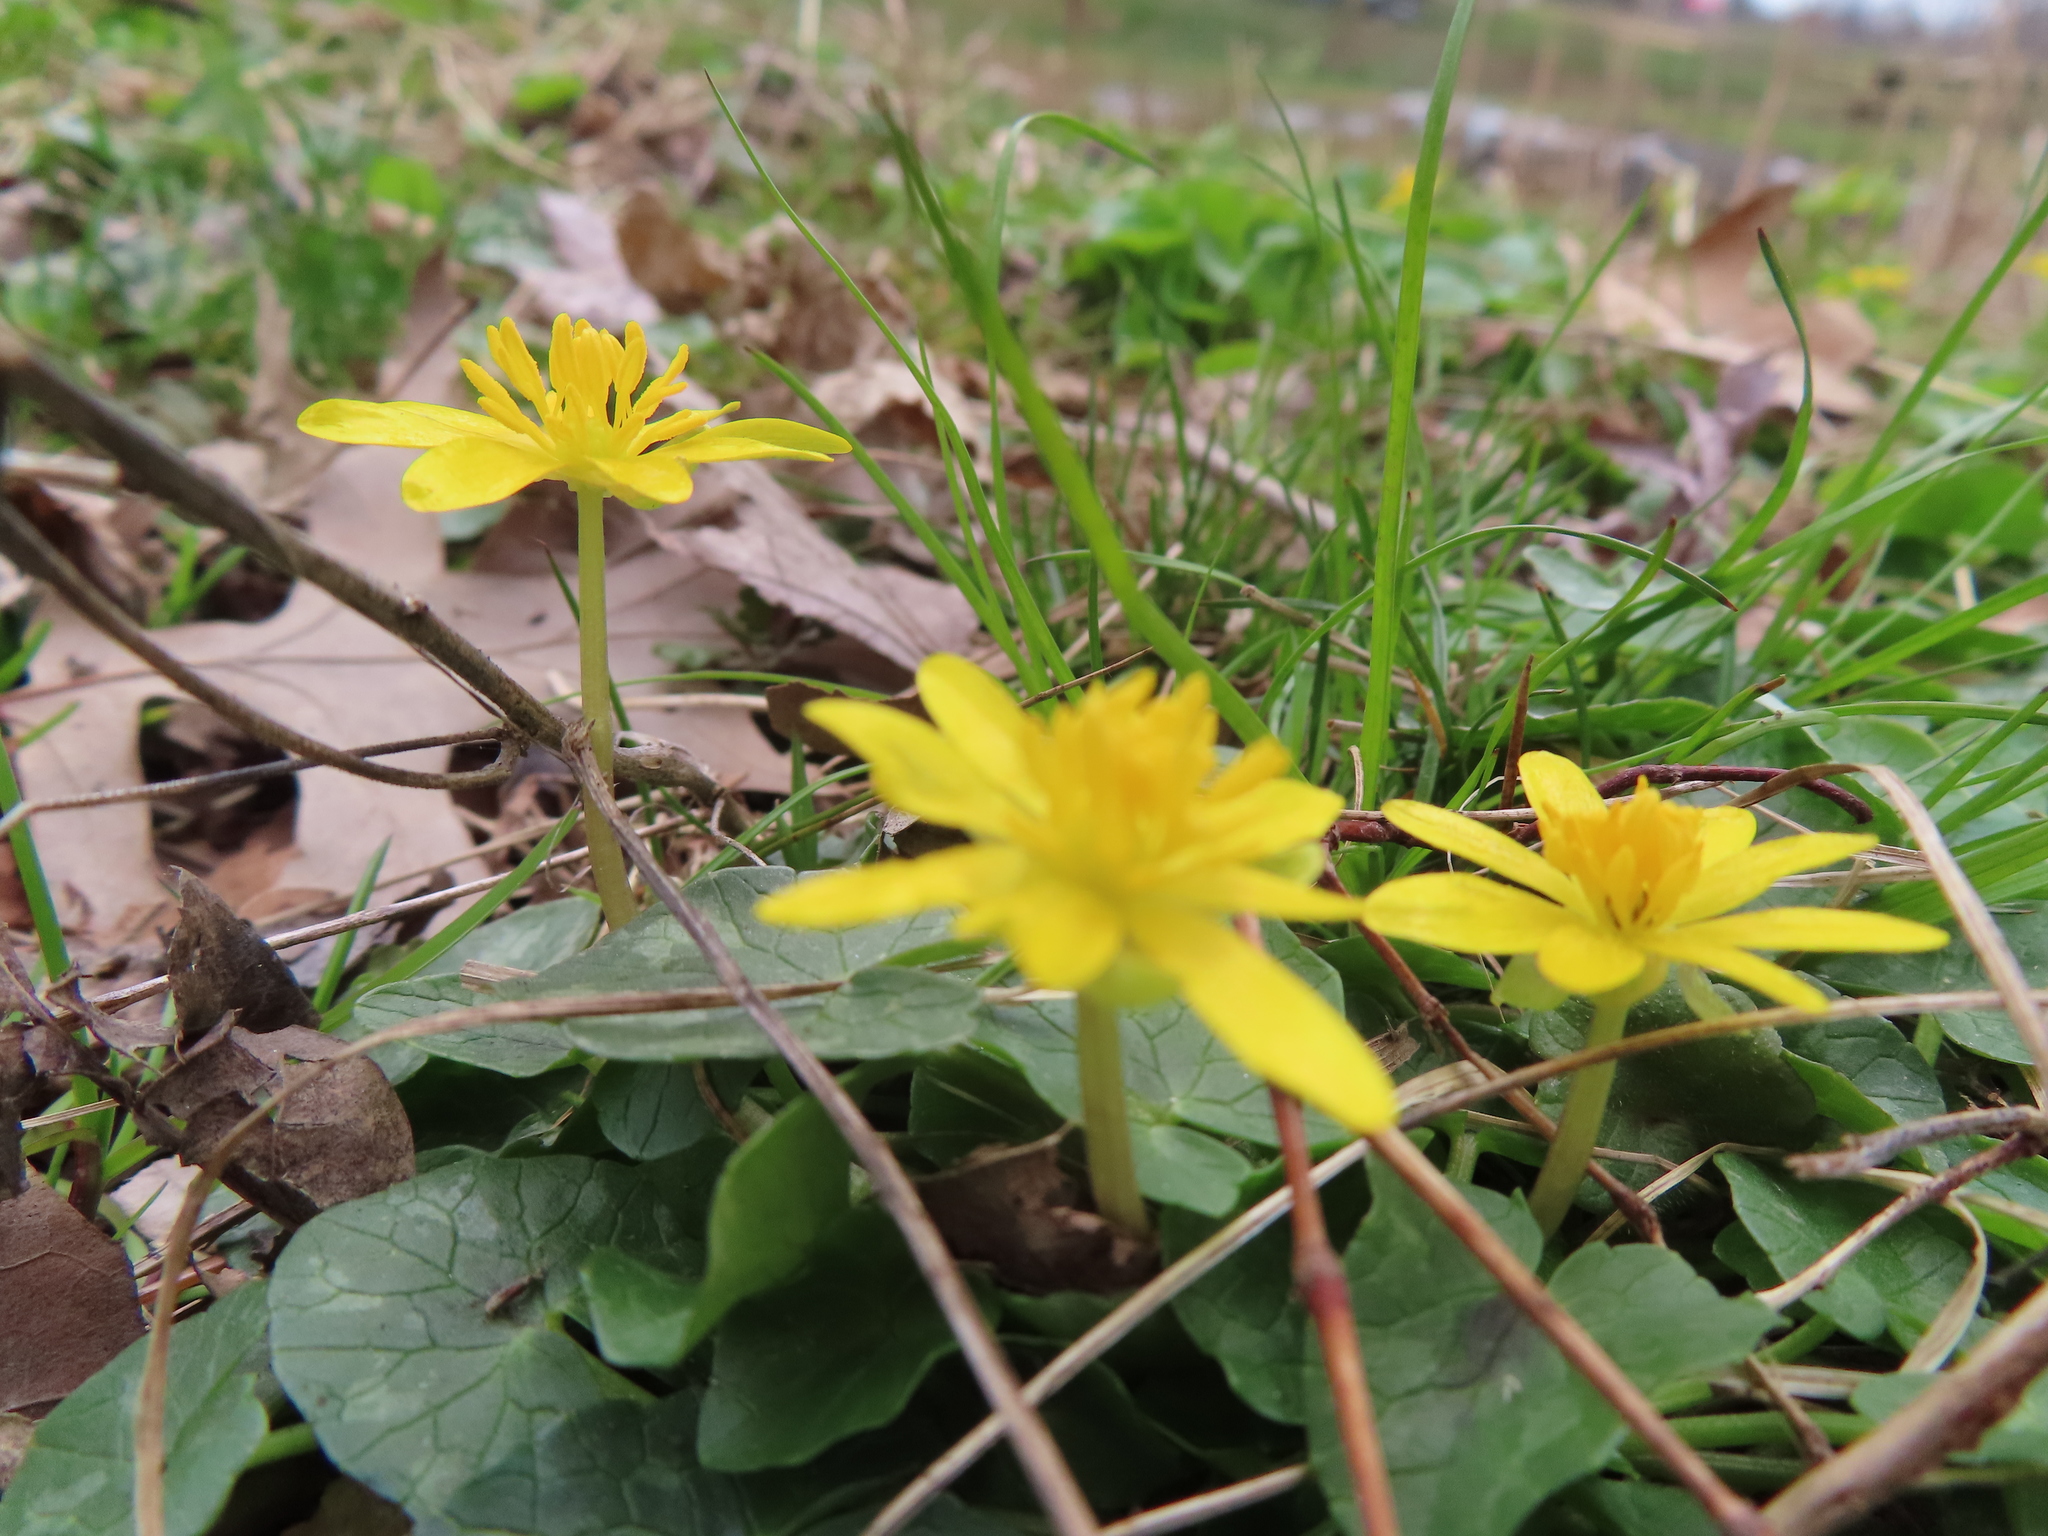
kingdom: Plantae
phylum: Tracheophyta
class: Magnoliopsida
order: Ranunculales
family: Ranunculaceae
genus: Ficaria
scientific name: Ficaria verna
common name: Lesser celandine
